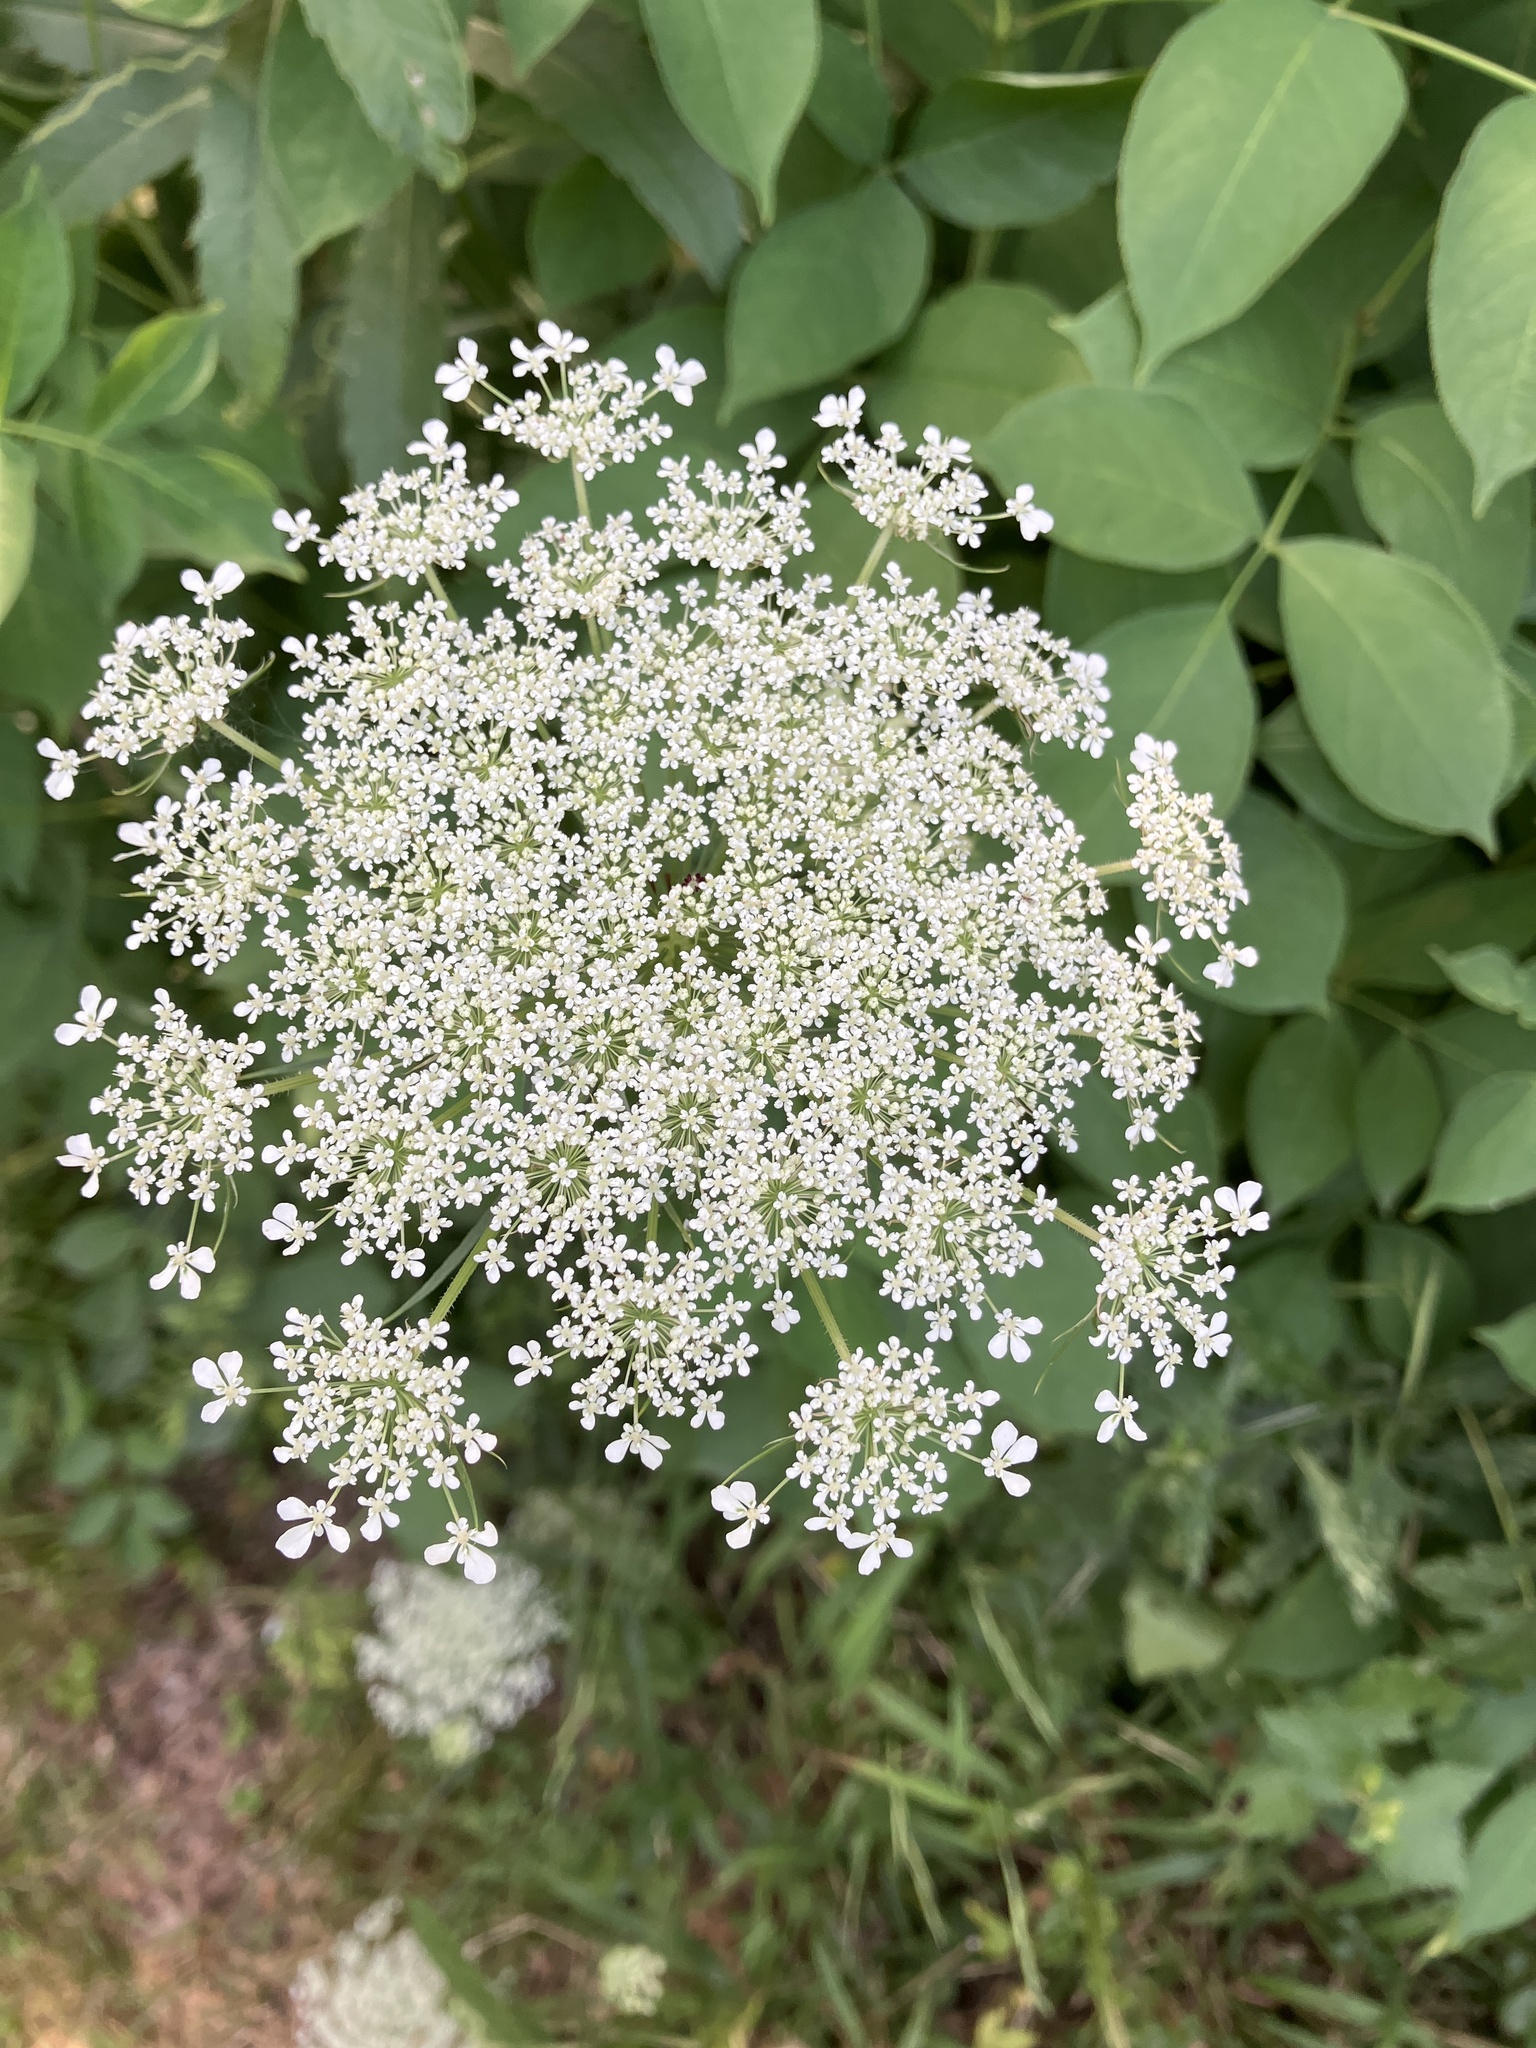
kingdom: Plantae
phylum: Tracheophyta
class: Magnoliopsida
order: Apiales
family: Apiaceae
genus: Daucus
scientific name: Daucus carota
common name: Wild carrot
